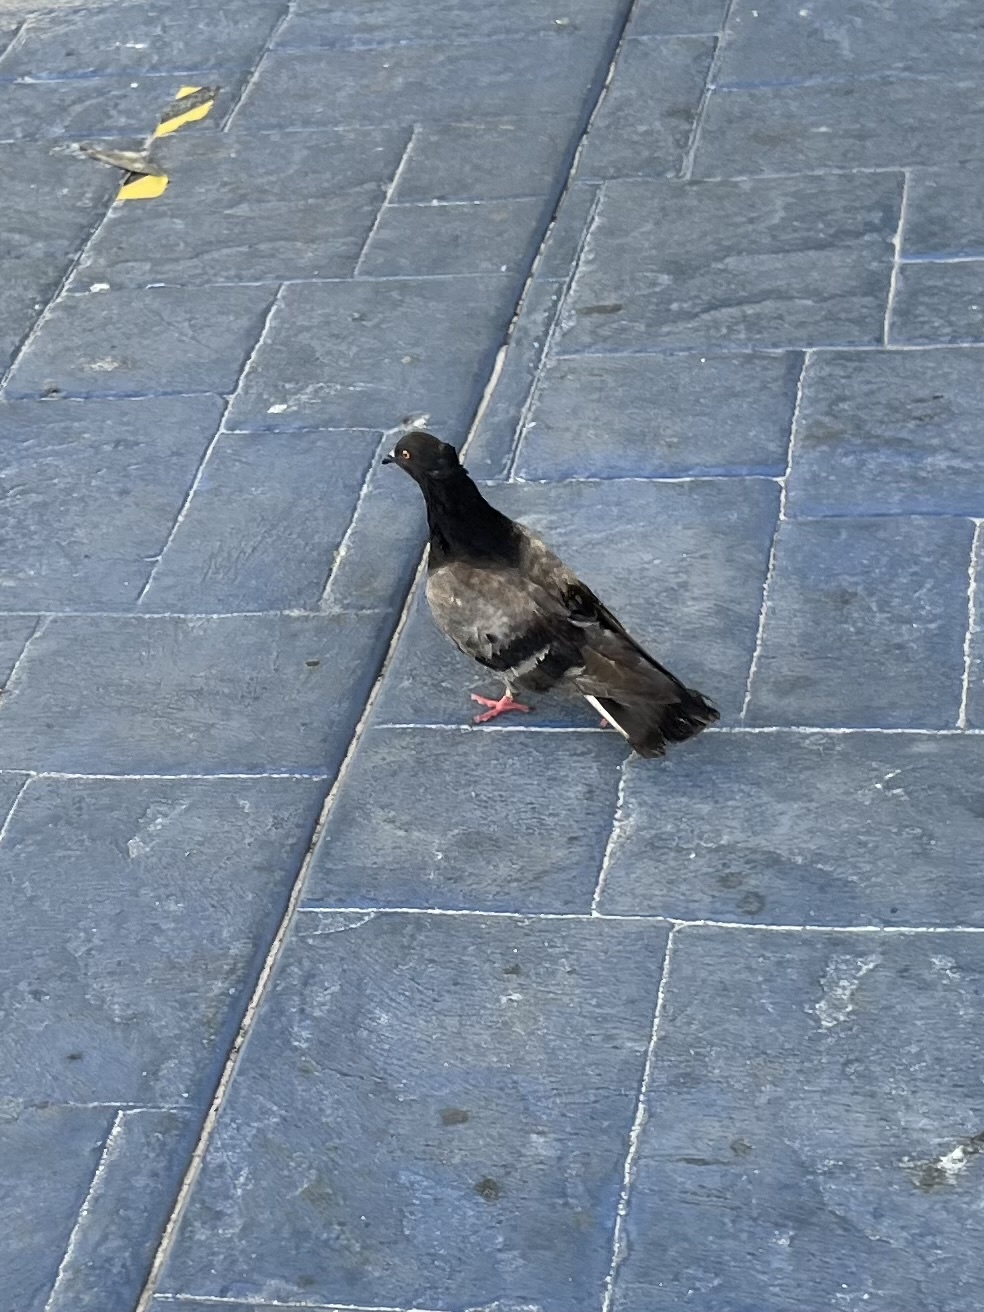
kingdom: Animalia
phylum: Chordata
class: Aves
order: Columbiformes
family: Columbidae
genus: Columba
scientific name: Columba livia
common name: Rock pigeon
